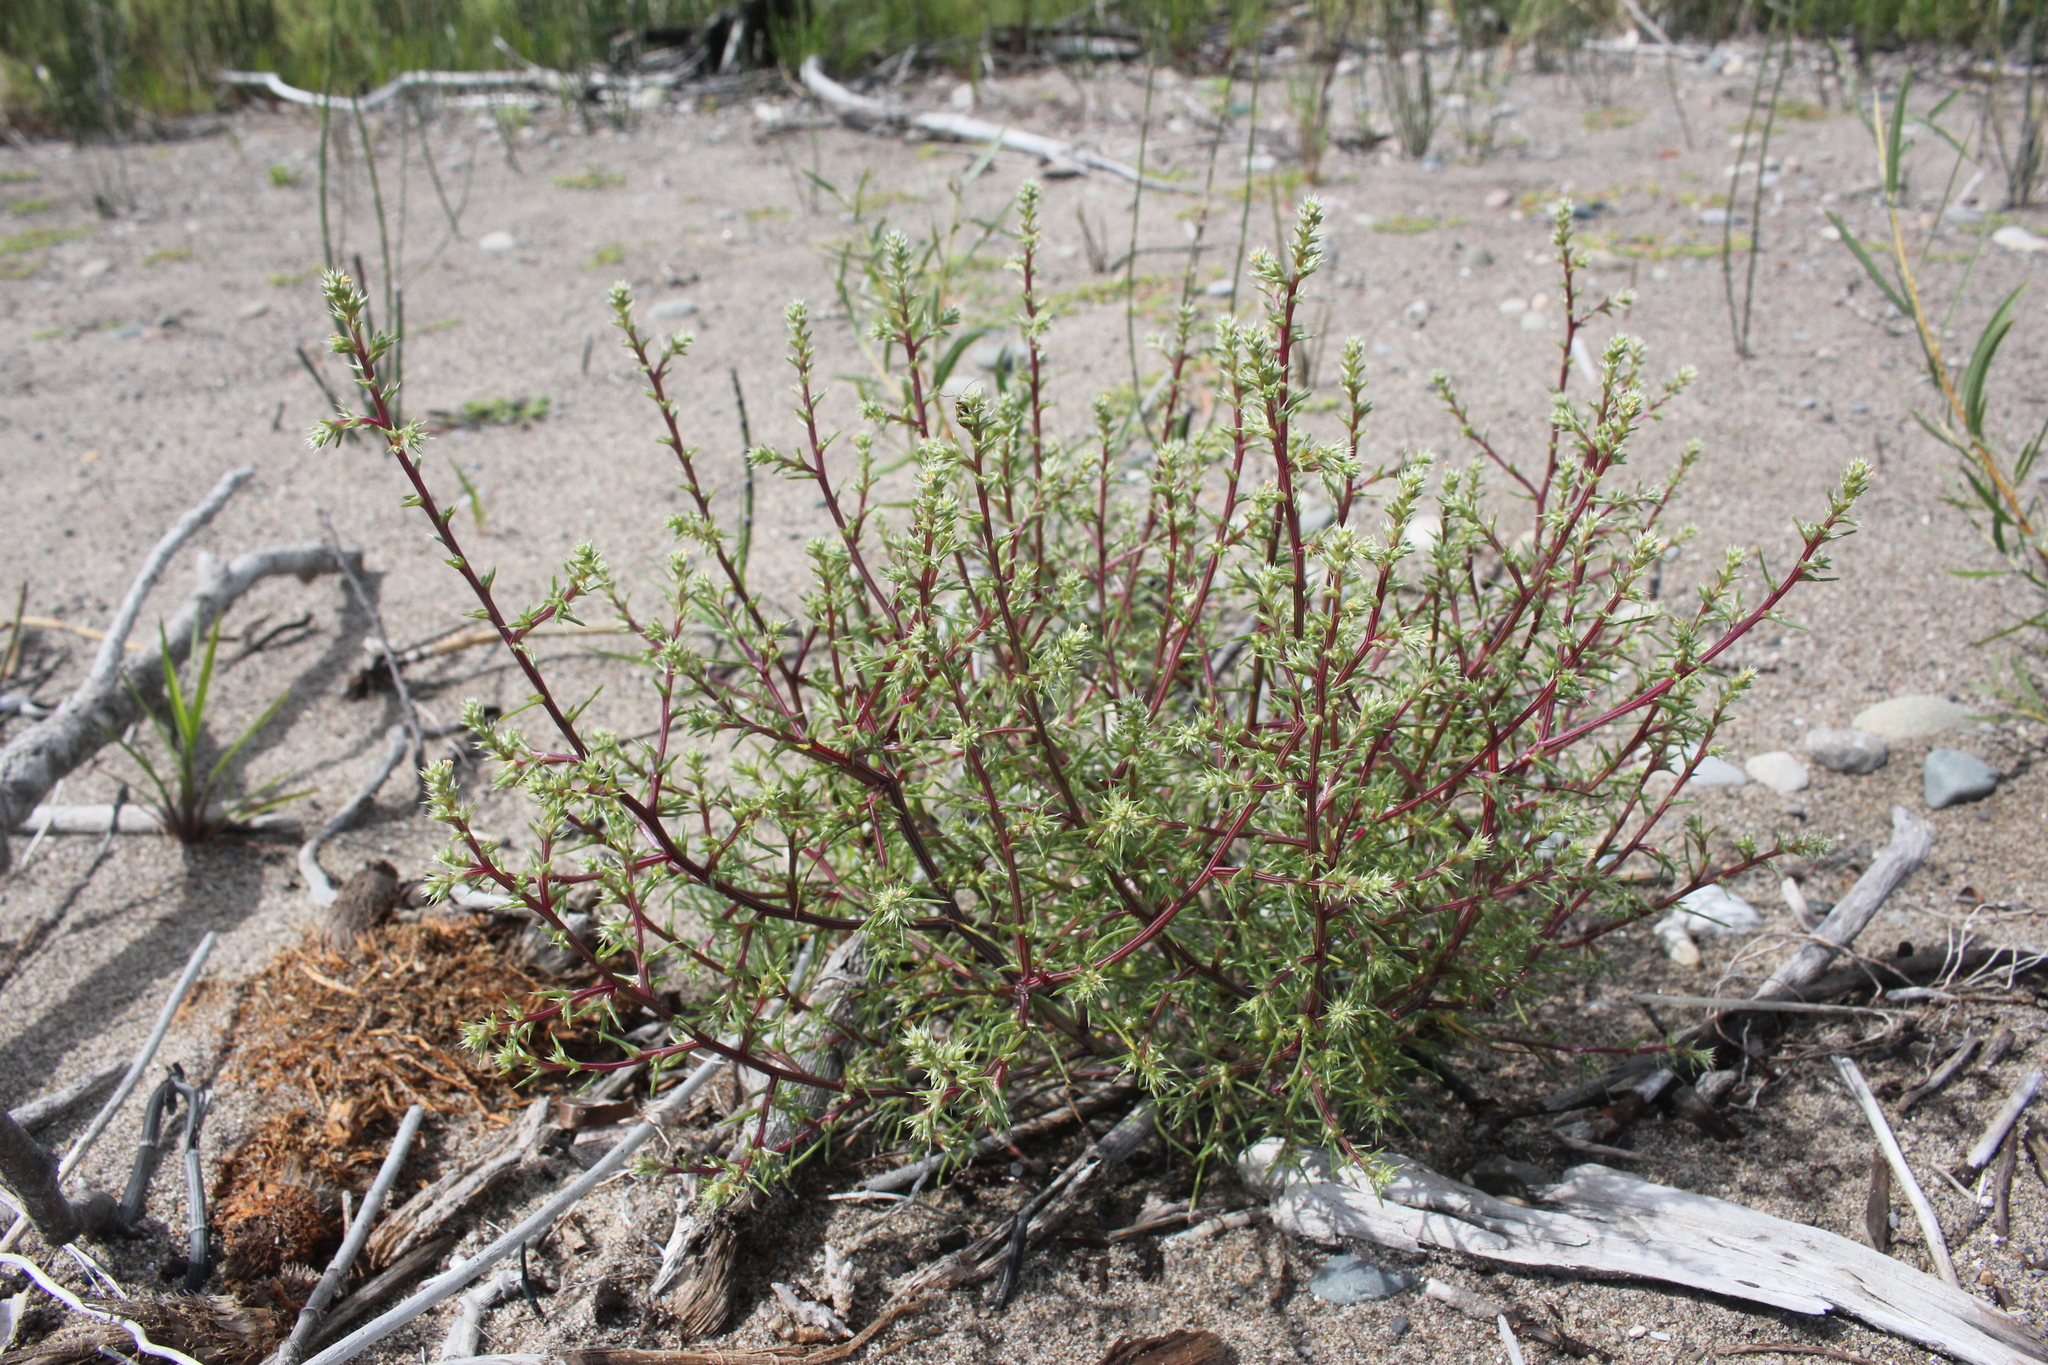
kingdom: Plantae
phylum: Tracheophyta
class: Magnoliopsida
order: Caryophyllales
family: Amaranthaceae
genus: Salsola
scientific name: Salsola tragus
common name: Prickly russian thistle
